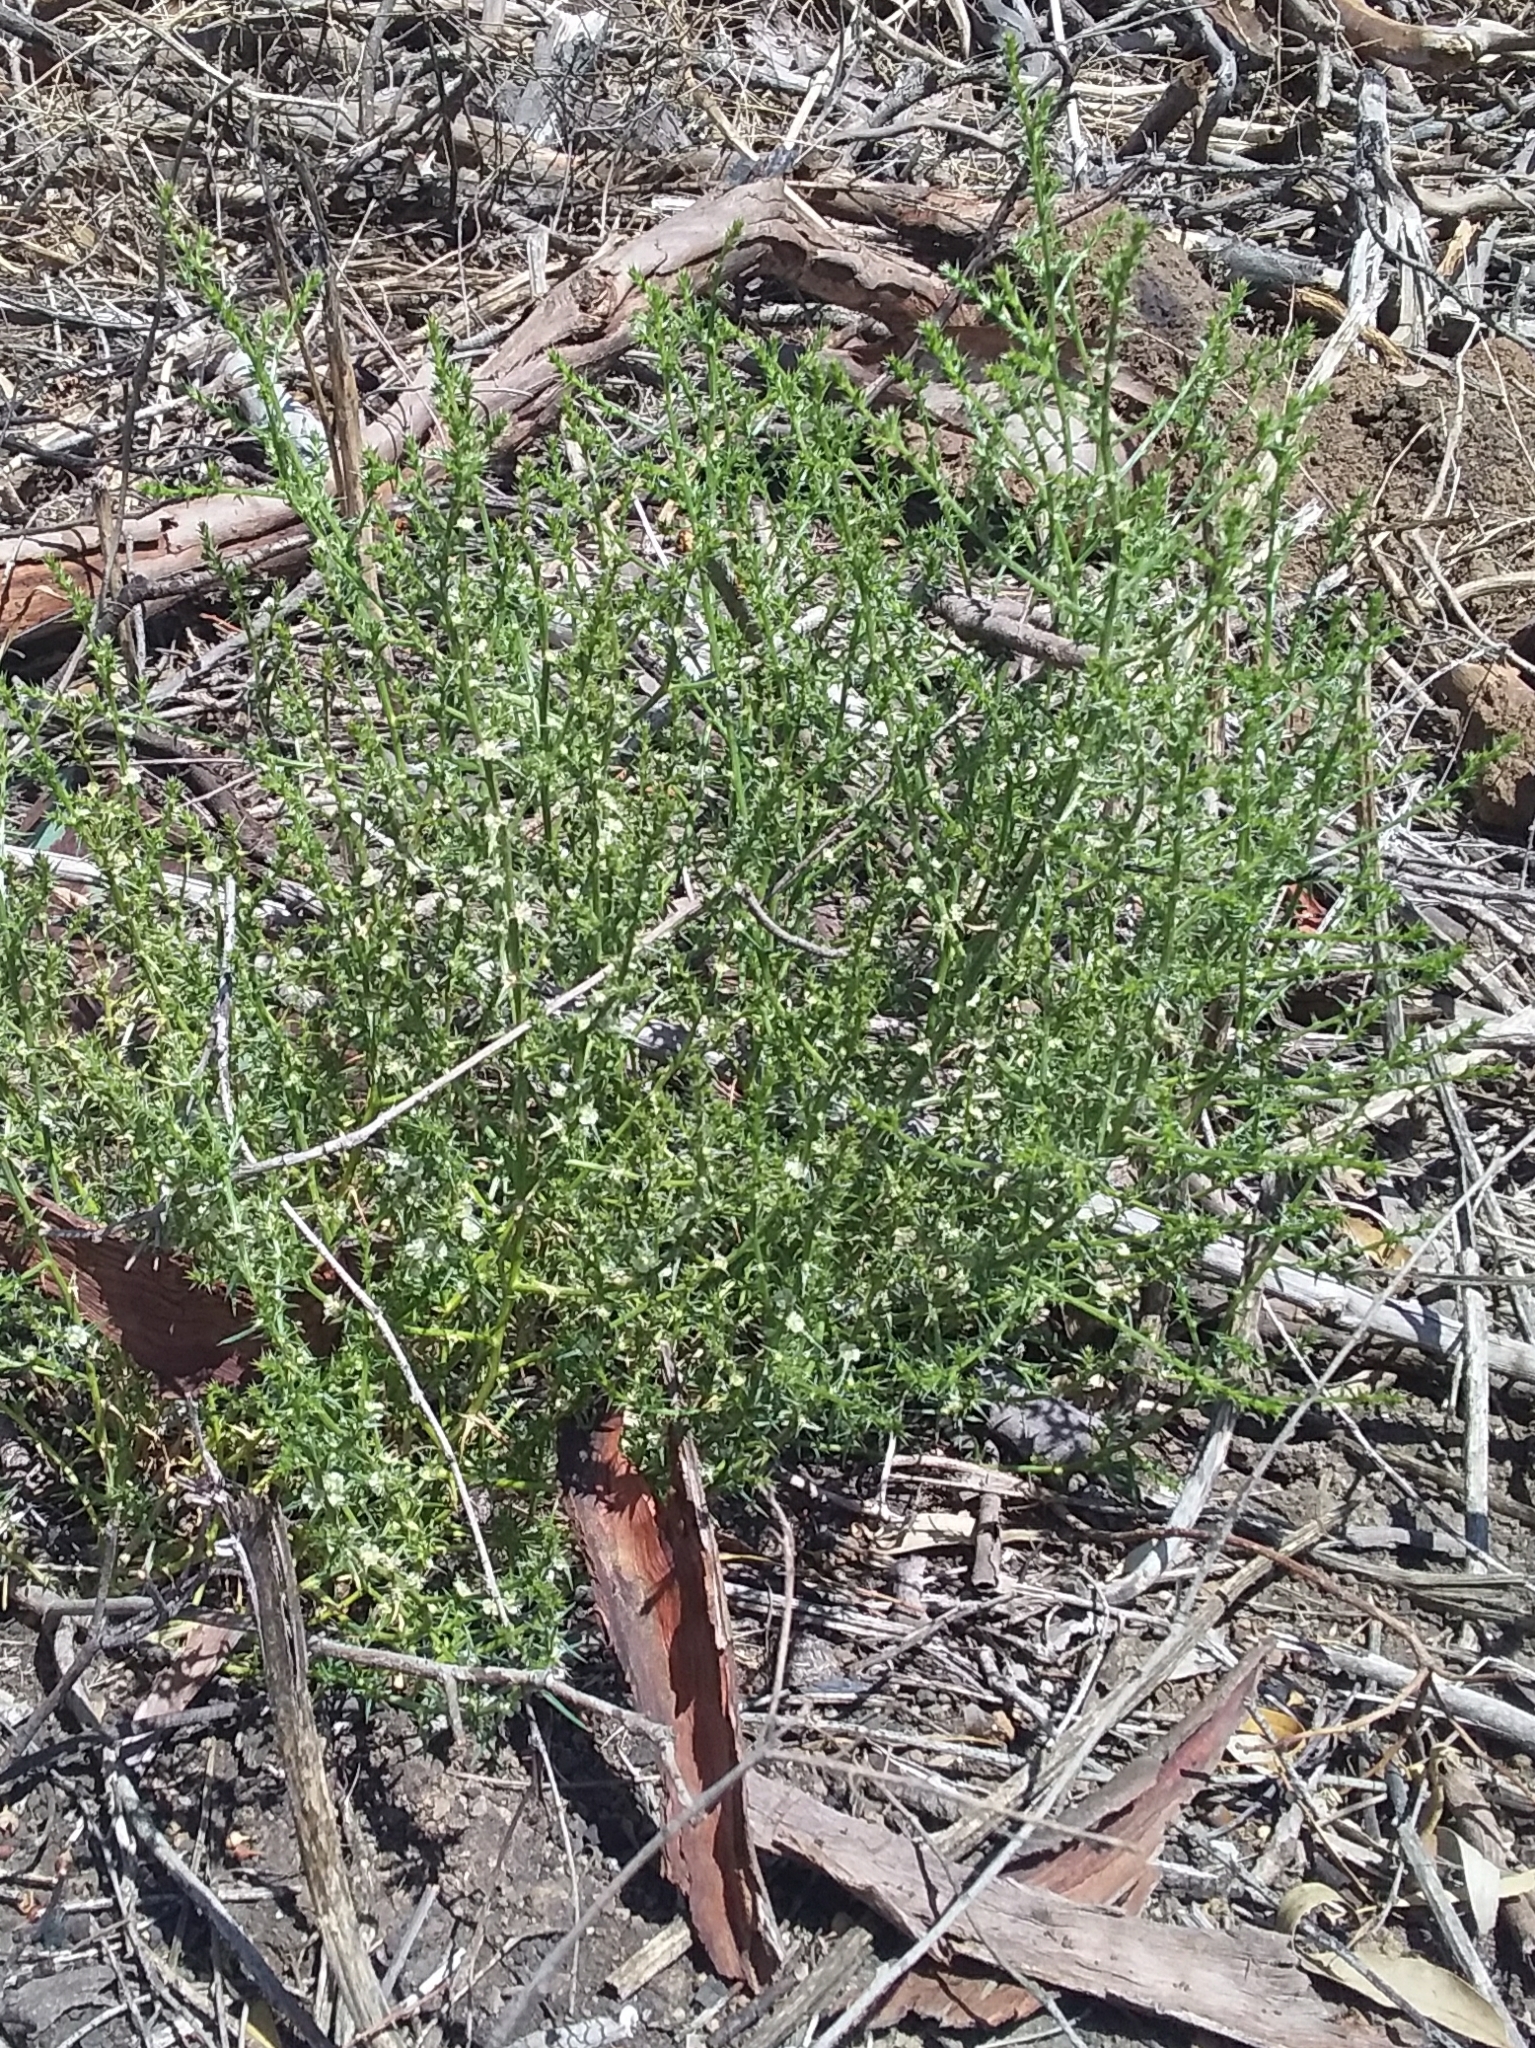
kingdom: Plantae
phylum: Tracheophyta
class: Magnoliopsida
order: Caryophyllales
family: Amaranthaceae
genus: Salsola
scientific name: Salsola australis
